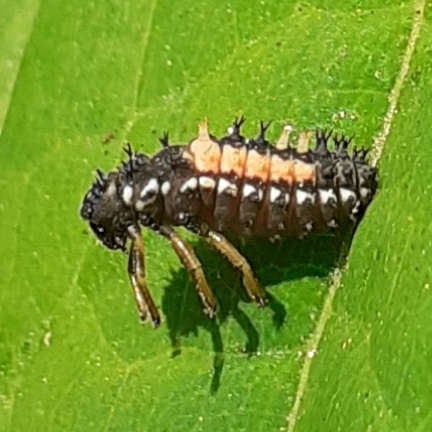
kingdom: Animalia
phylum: Arthropoda
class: Insecta
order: Coleoptera
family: Coccinellidae
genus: Harmonia
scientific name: Harmonia axyridis
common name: Harlequin ladybird
